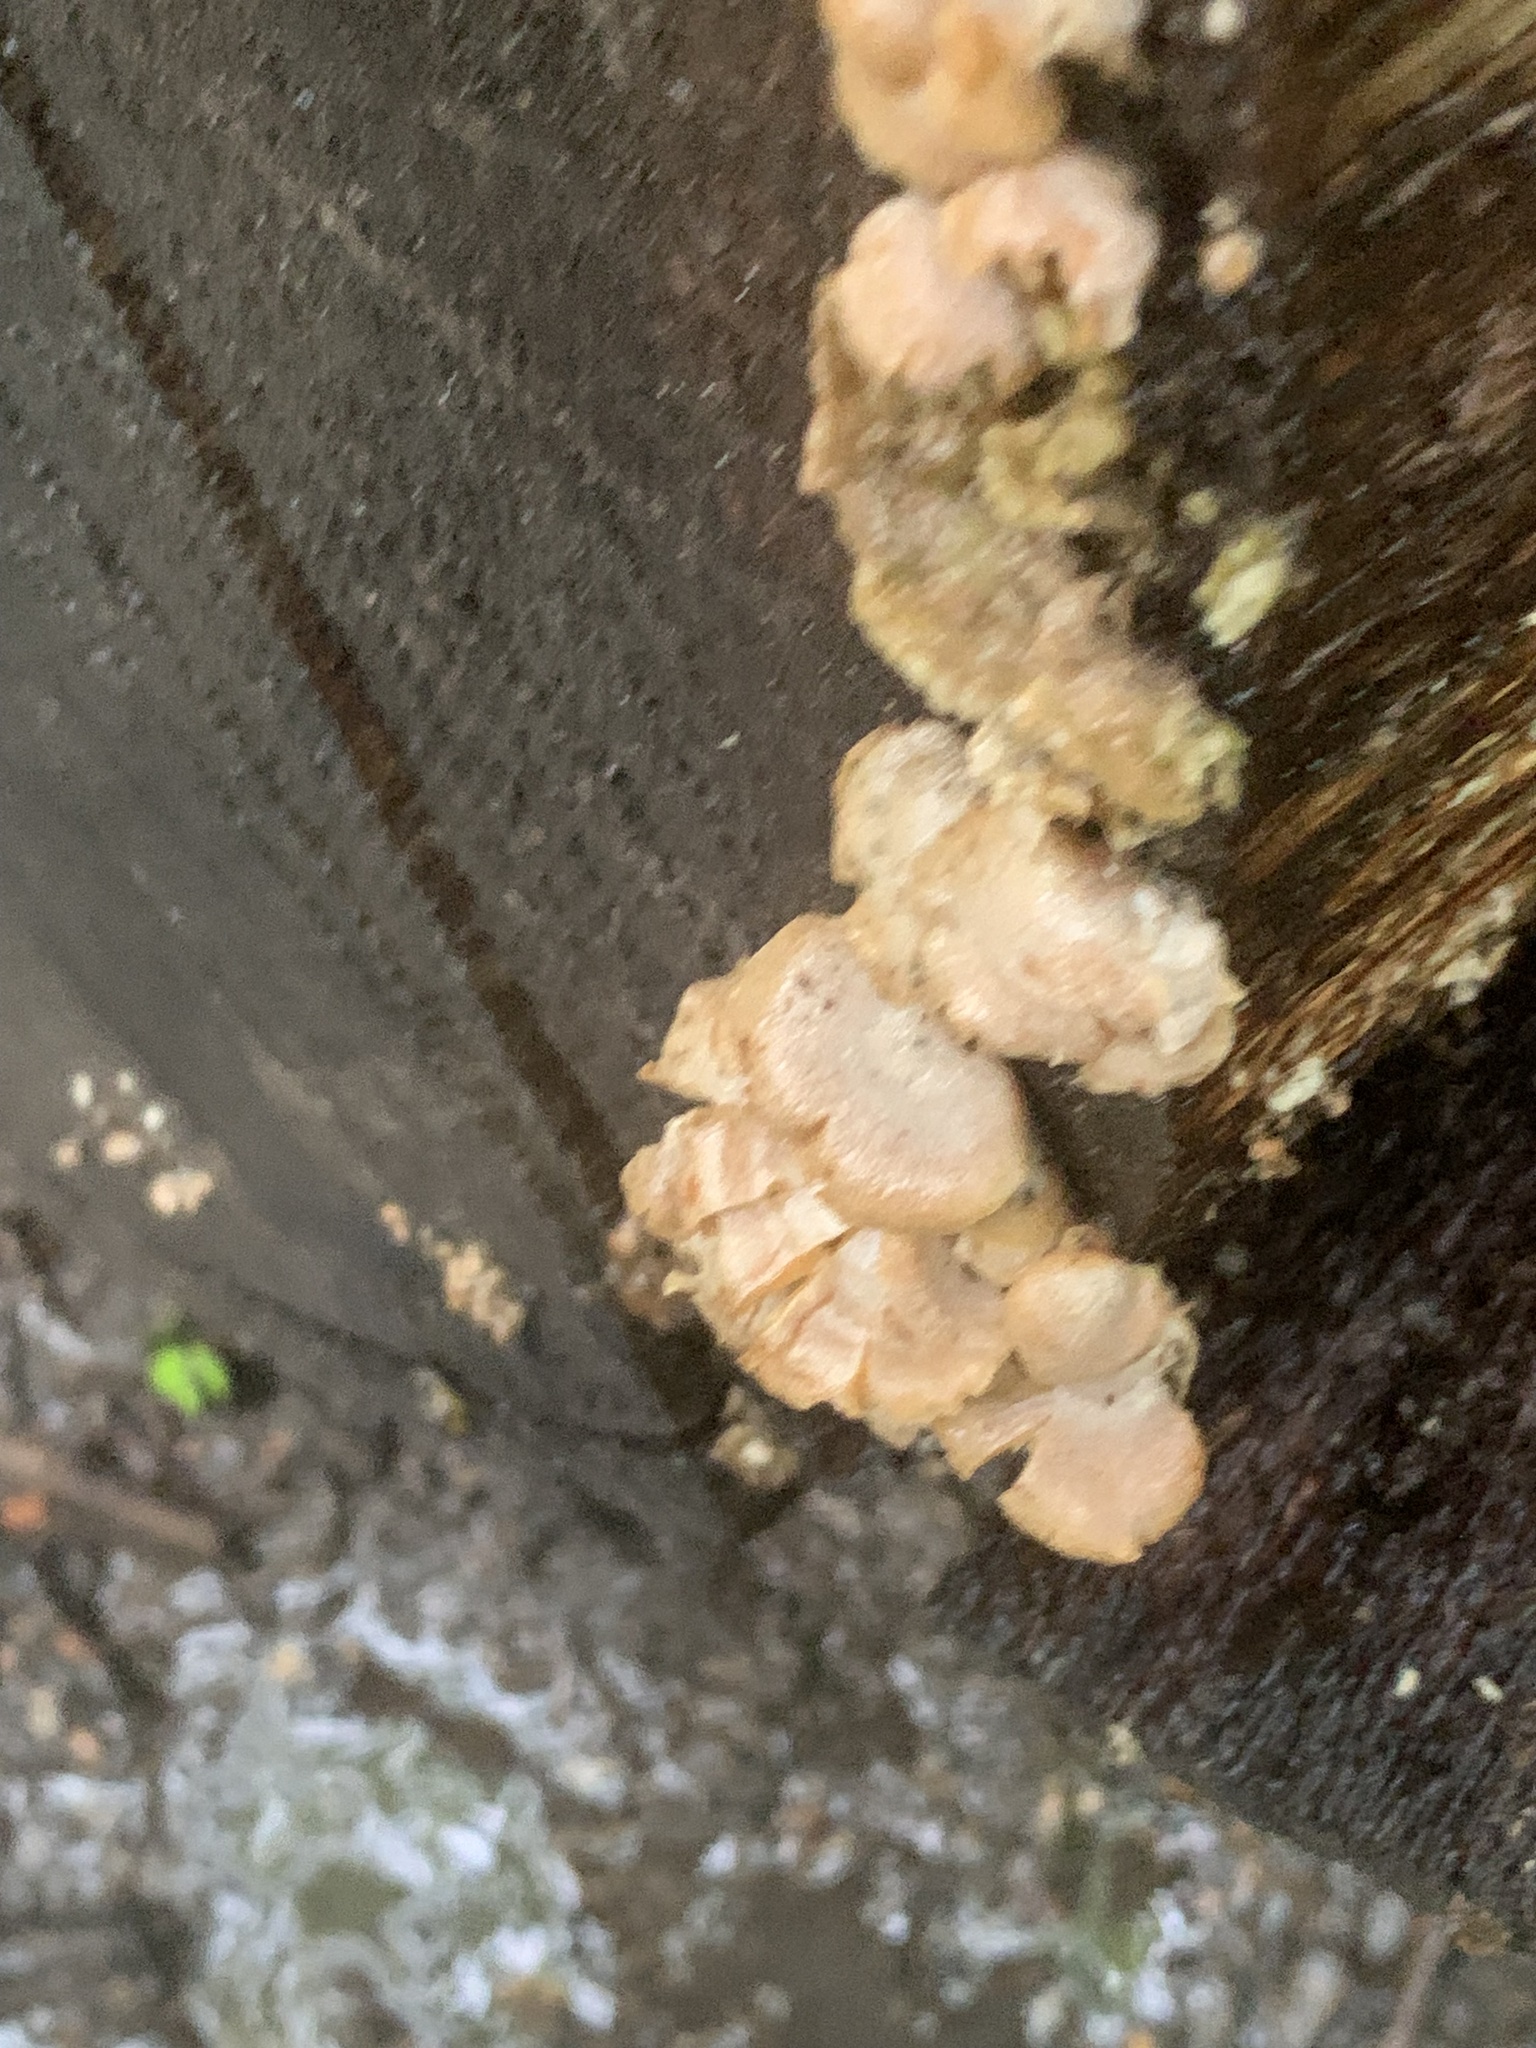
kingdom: Fungi
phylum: Basidiomycota
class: Agaricomycetes
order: Agaricales
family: Mycenaceae
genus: Panellus
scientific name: Panellus stipticus
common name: Bitter oysterling
